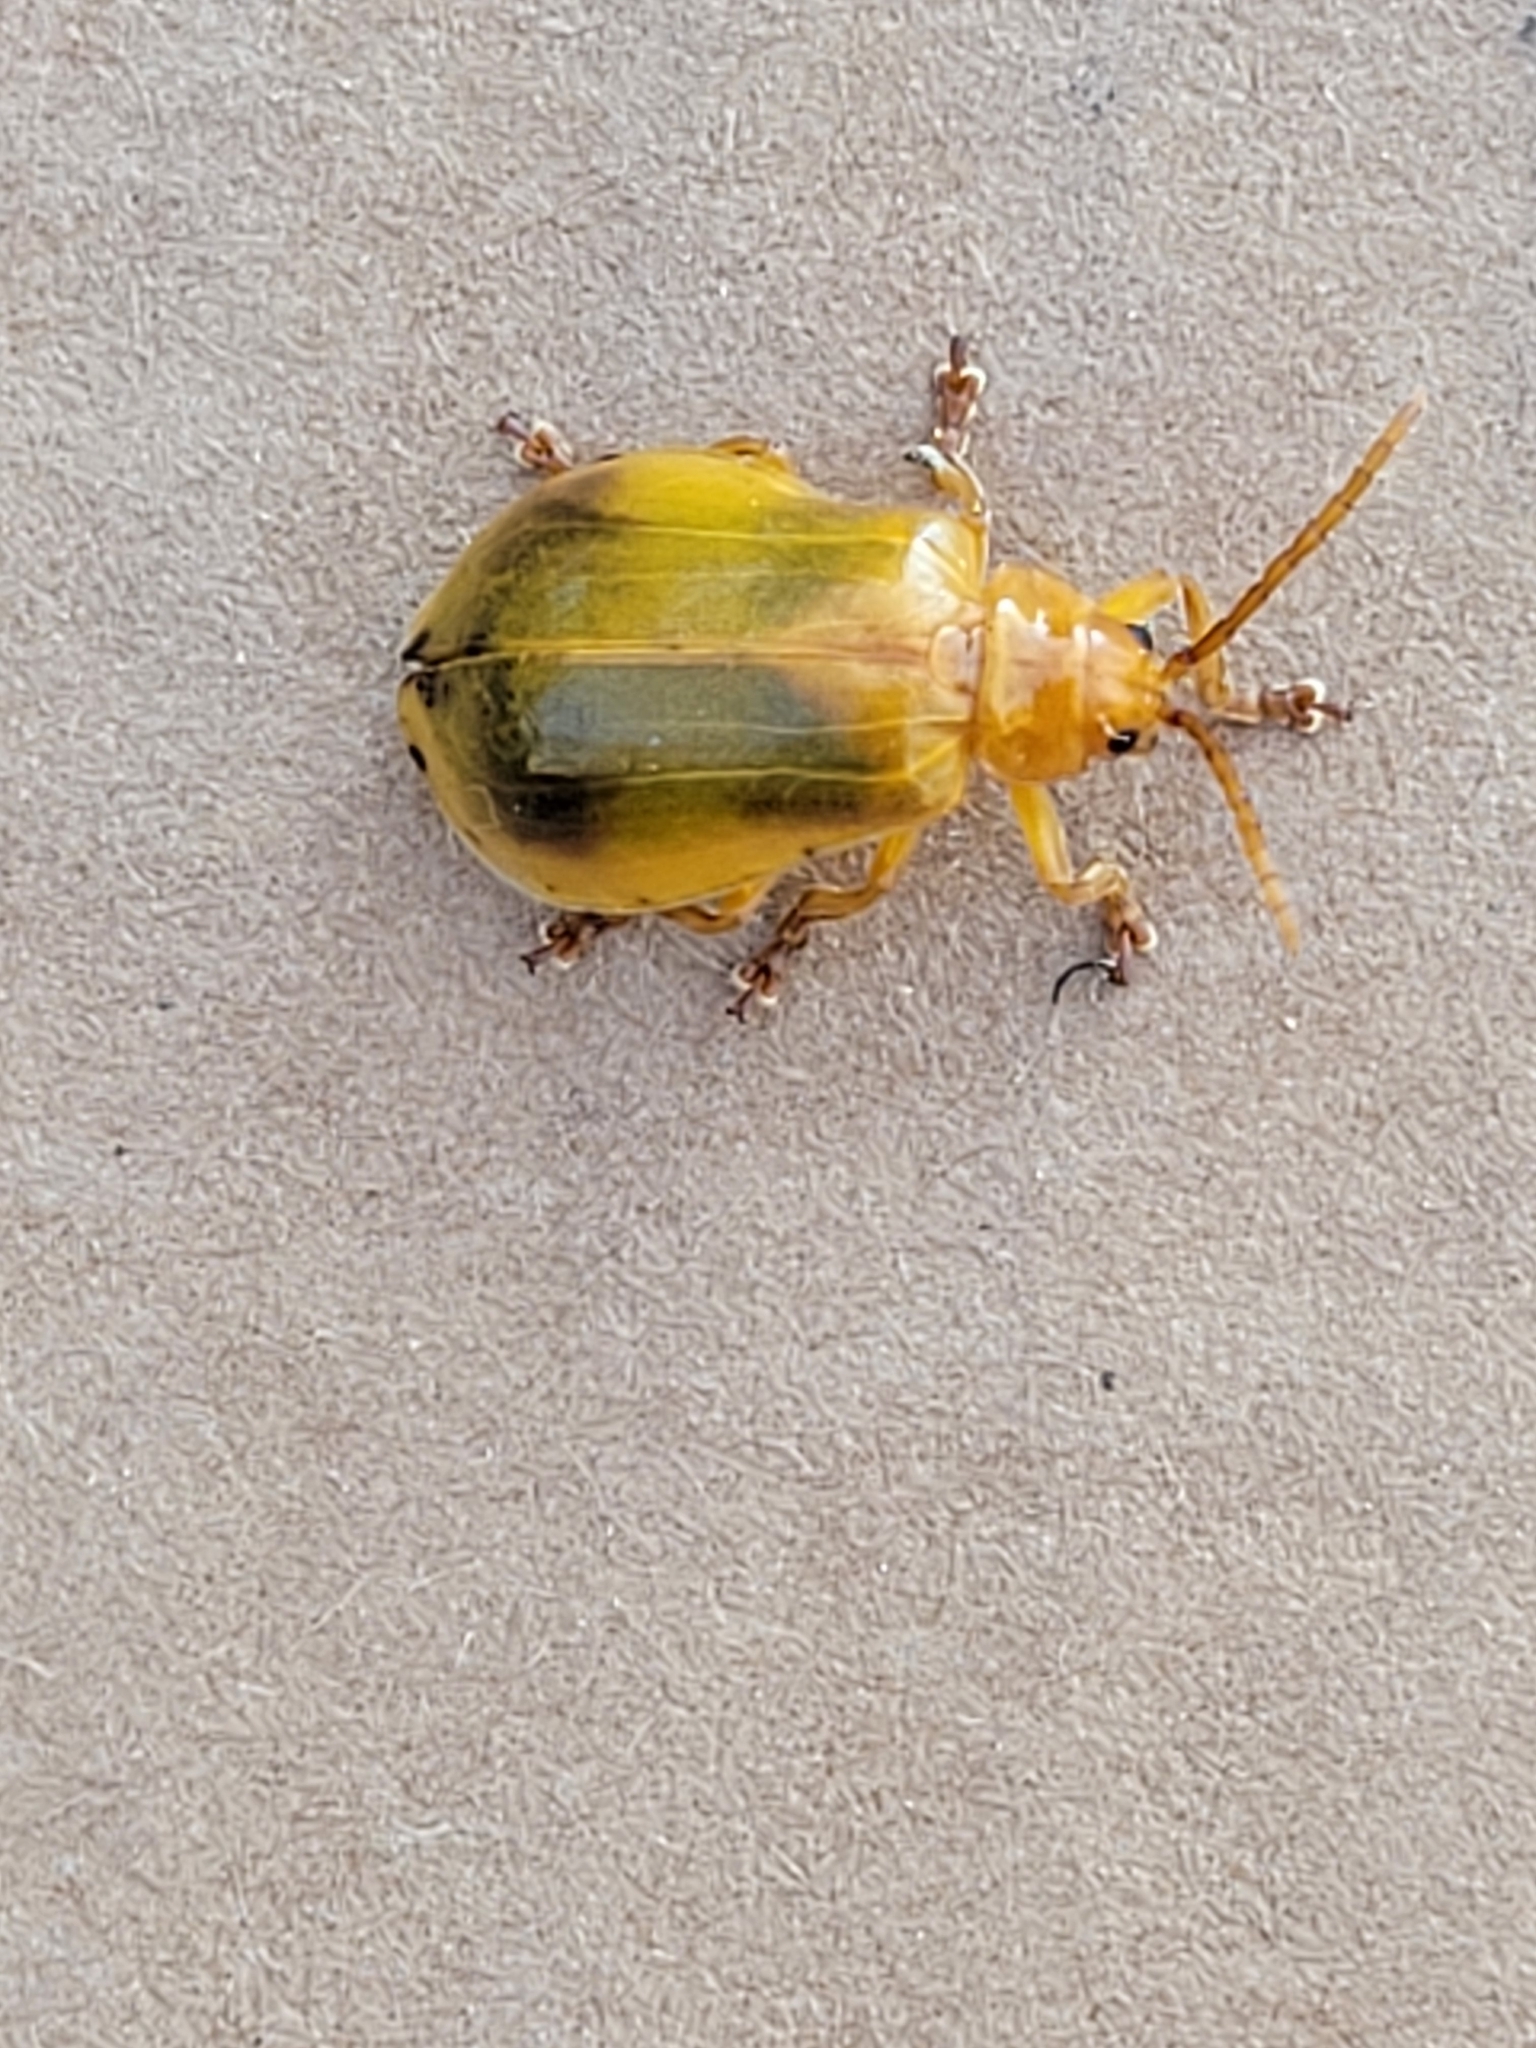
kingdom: Animalia
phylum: Arthropoda
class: Insecta
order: Coleoptera
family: Chrysomelidae
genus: Monocesta
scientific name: Monocesta coryli
